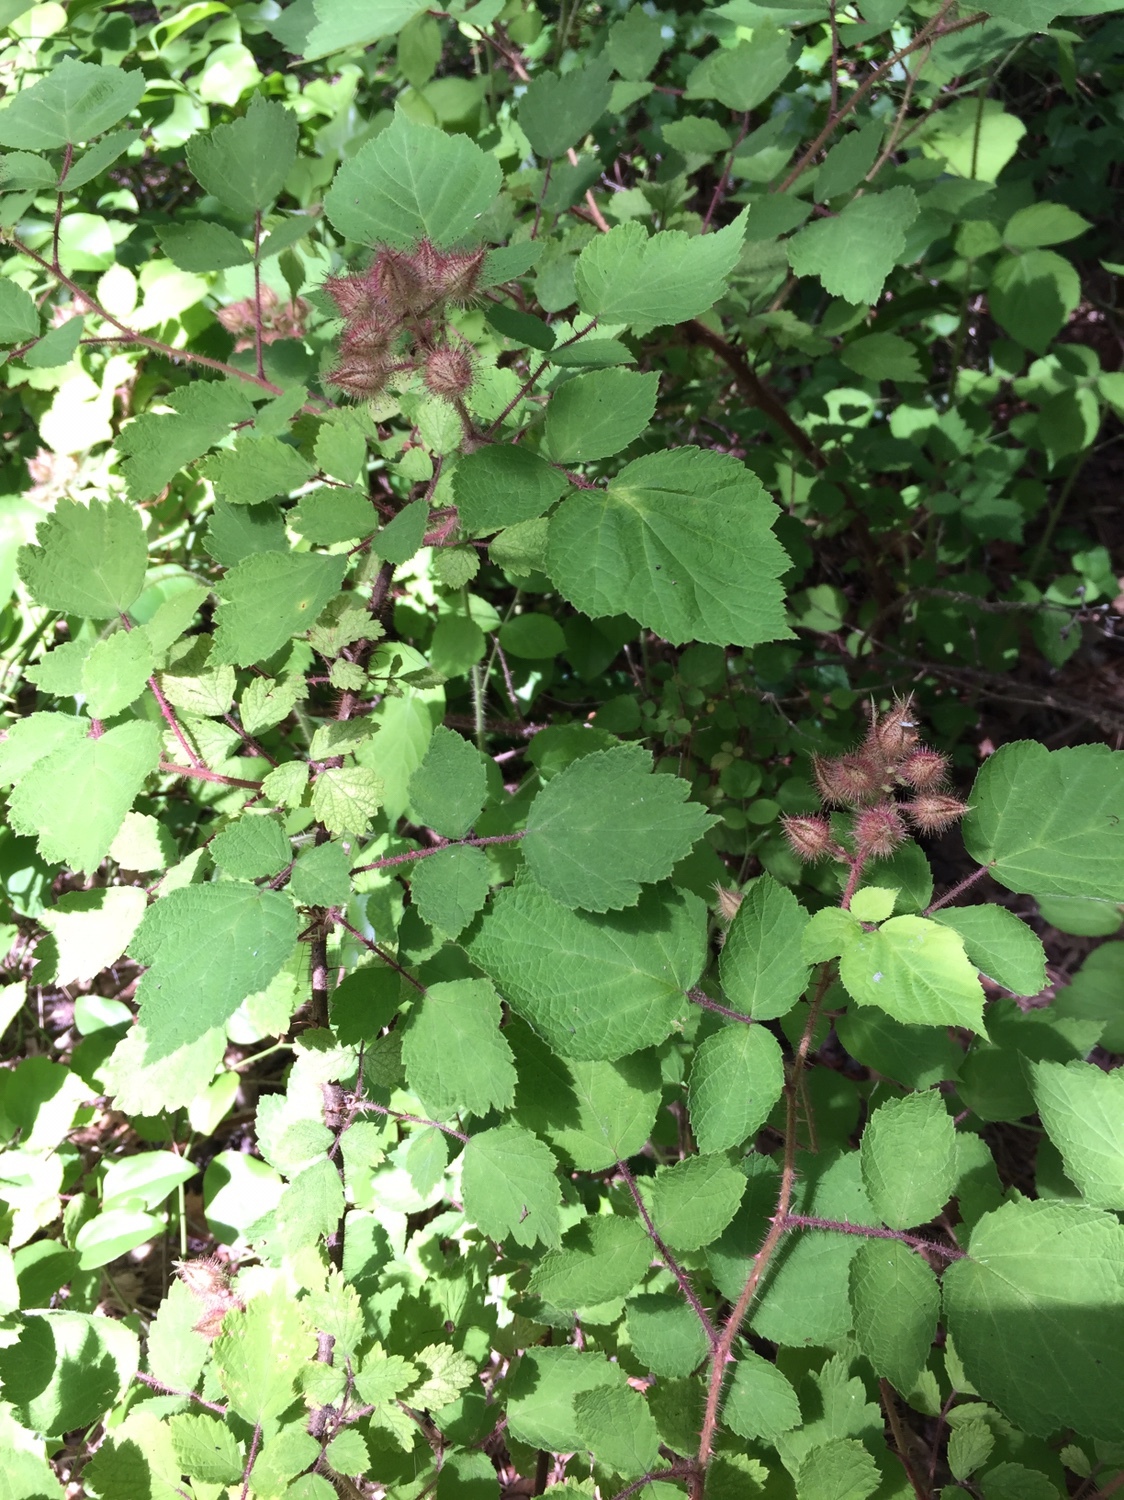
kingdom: Plantae
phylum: Tracheophyta
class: Magnoliopsida
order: Rosales
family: Rosaceae
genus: Rubus
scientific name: Rubus phoenicolasius
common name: Japanese wineberry
